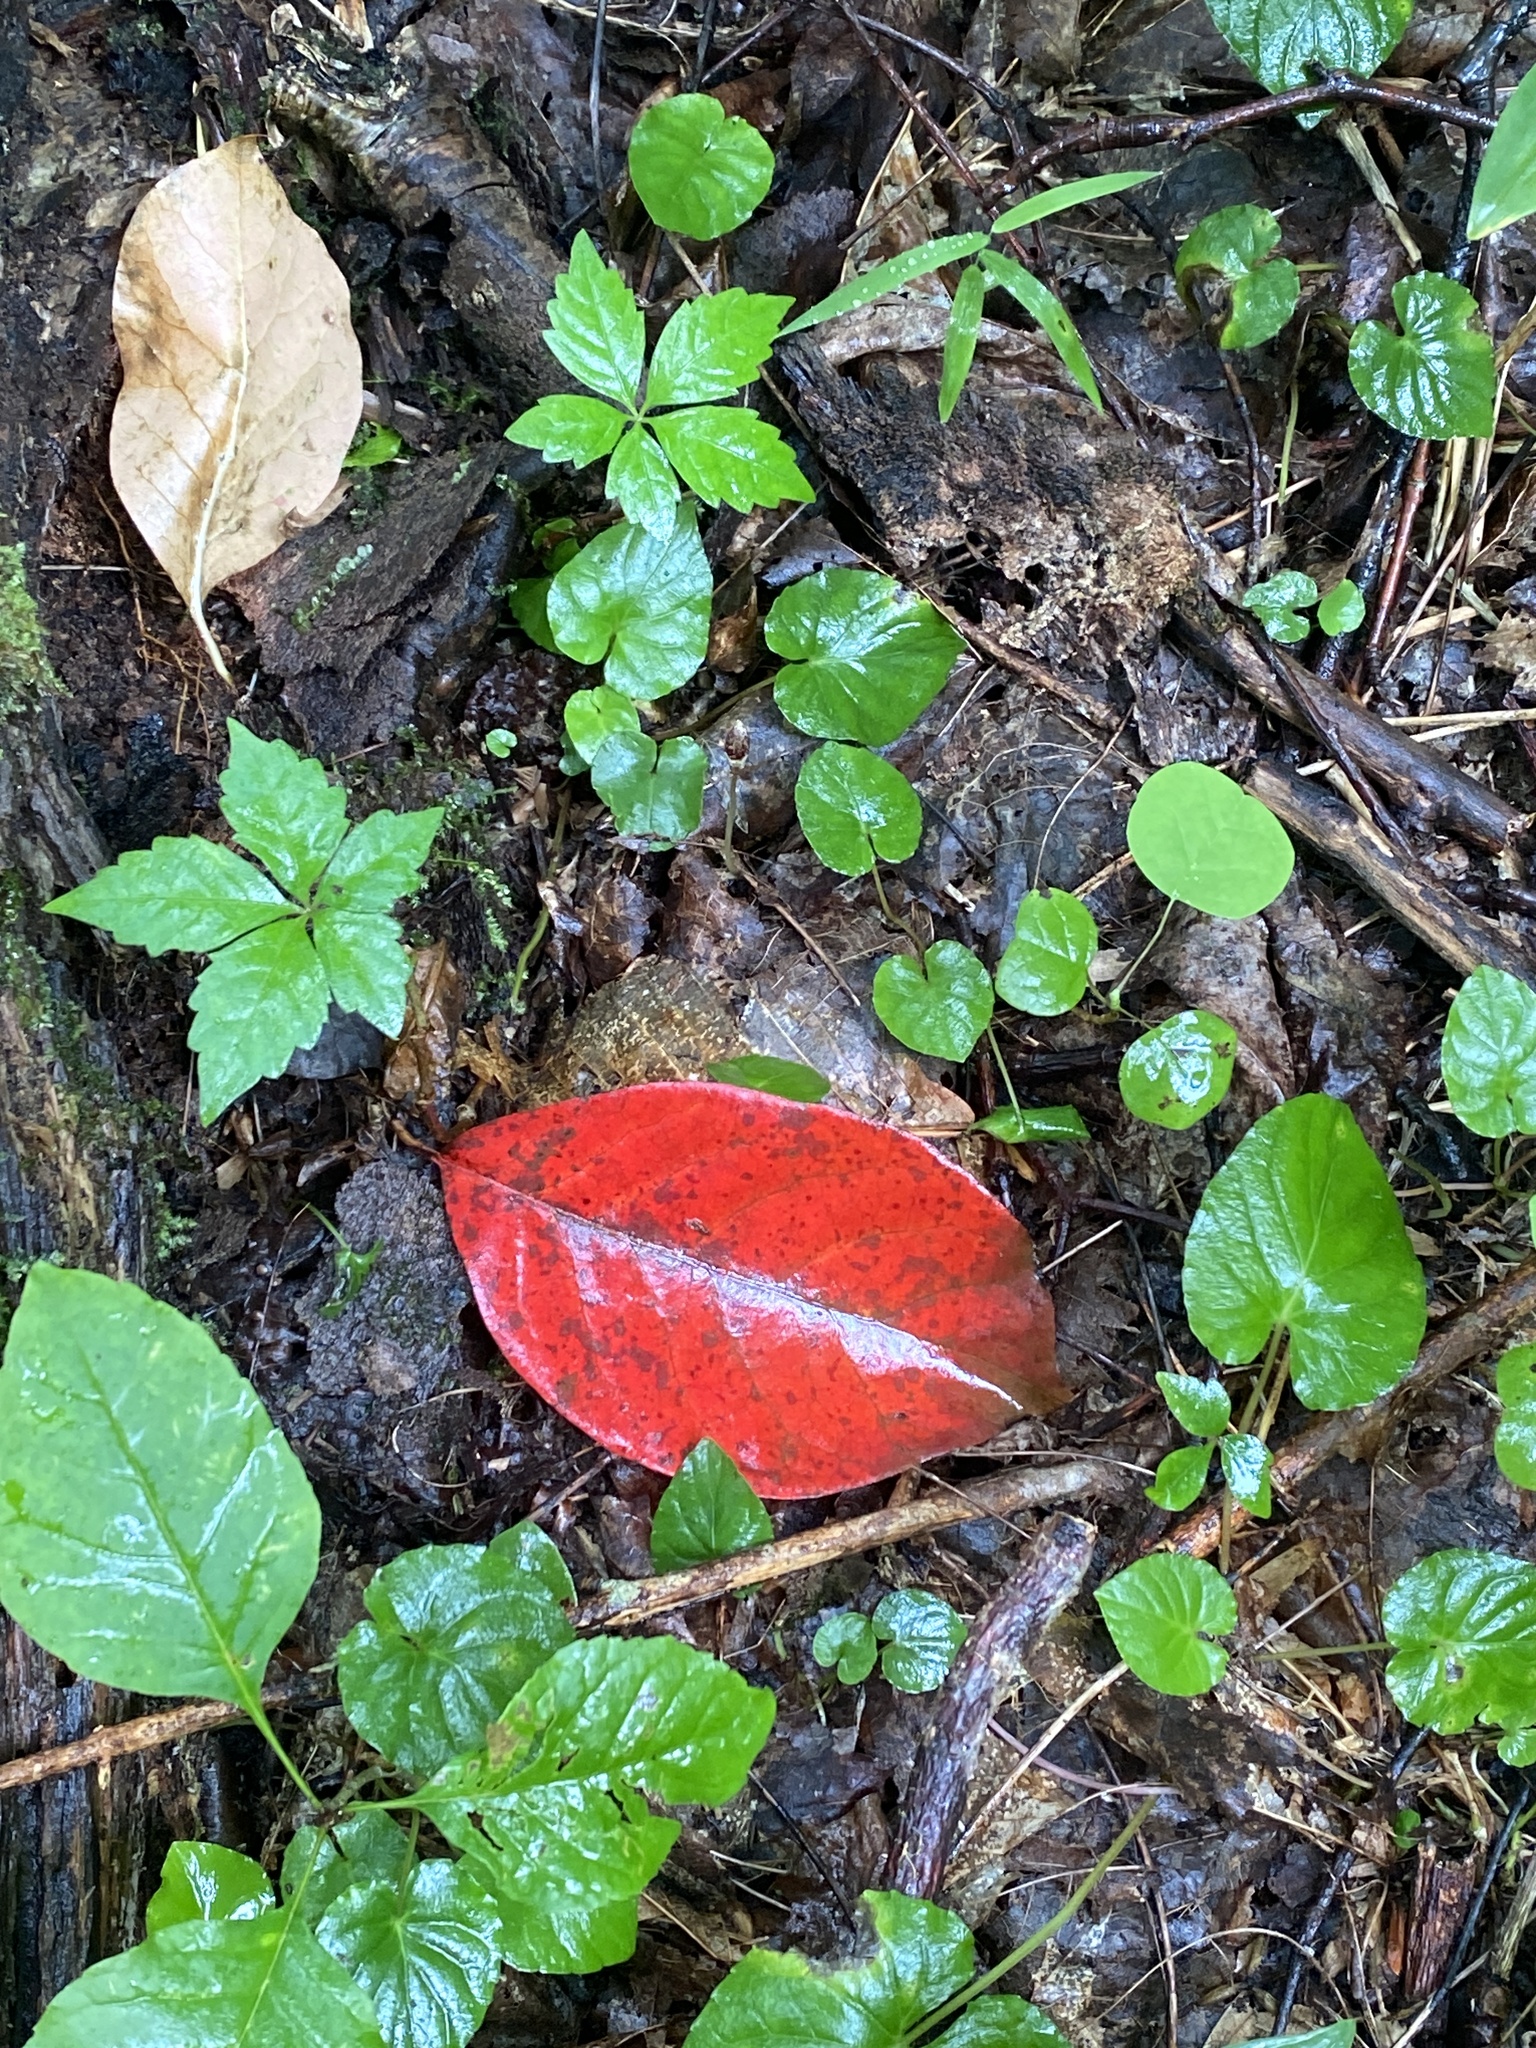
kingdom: Plantae
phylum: Tracheophyta
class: Magnoliopsida
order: Cornales
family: Nyssaceae
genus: Nyssa
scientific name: Nyssa sylvatica
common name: Black tupelo
